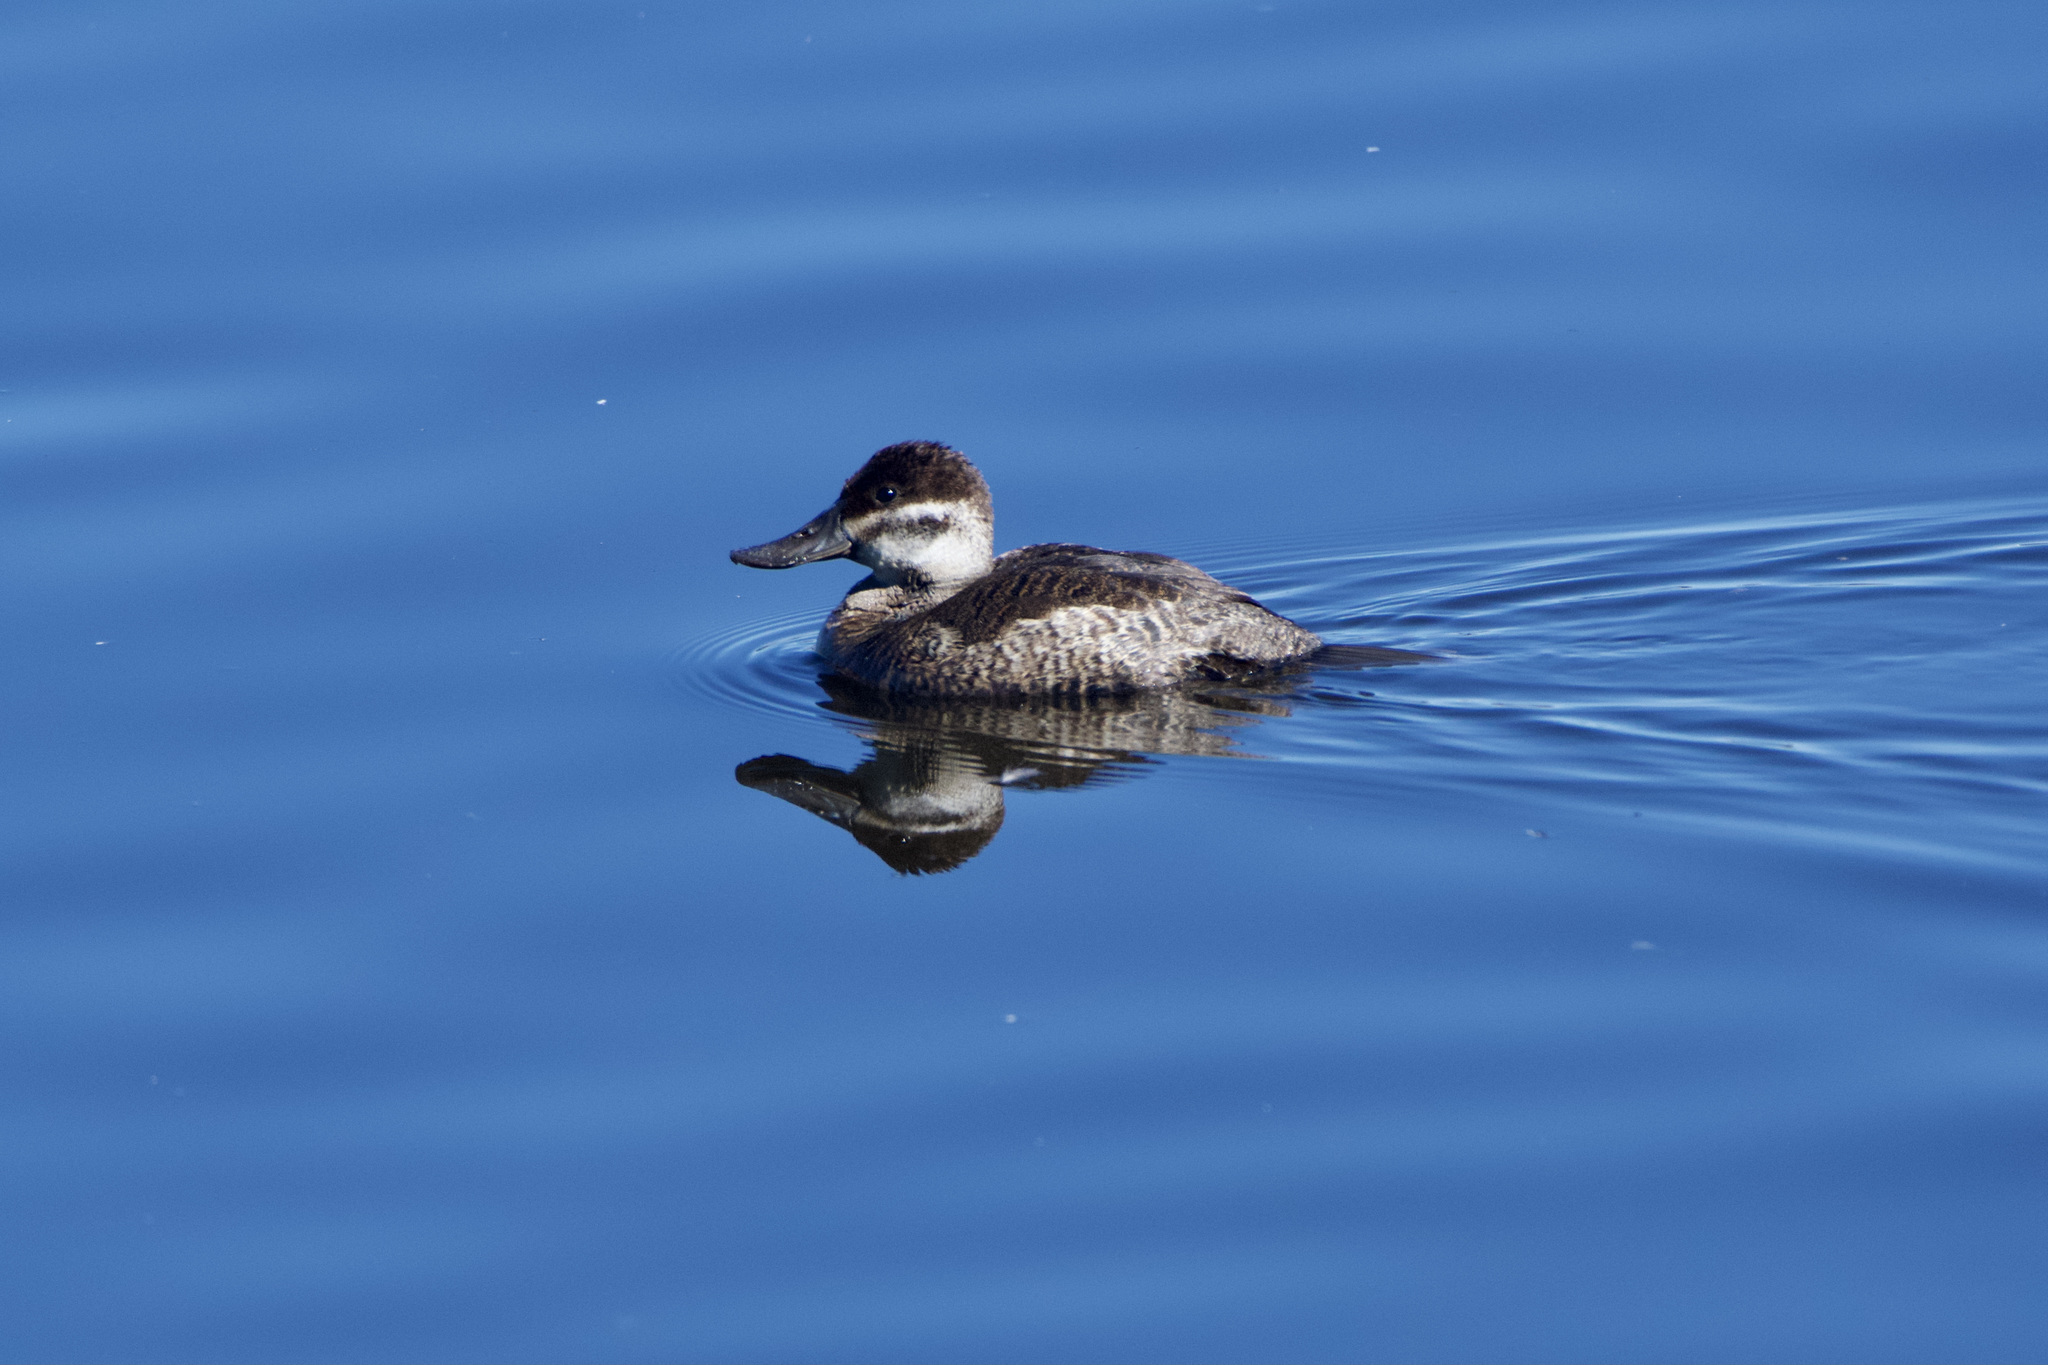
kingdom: Animalia
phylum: Chordata
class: Aves
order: Anseriformes
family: Anatidae
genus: Oxyura
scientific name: Oxyura jamaicensis
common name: Ruddy duck
